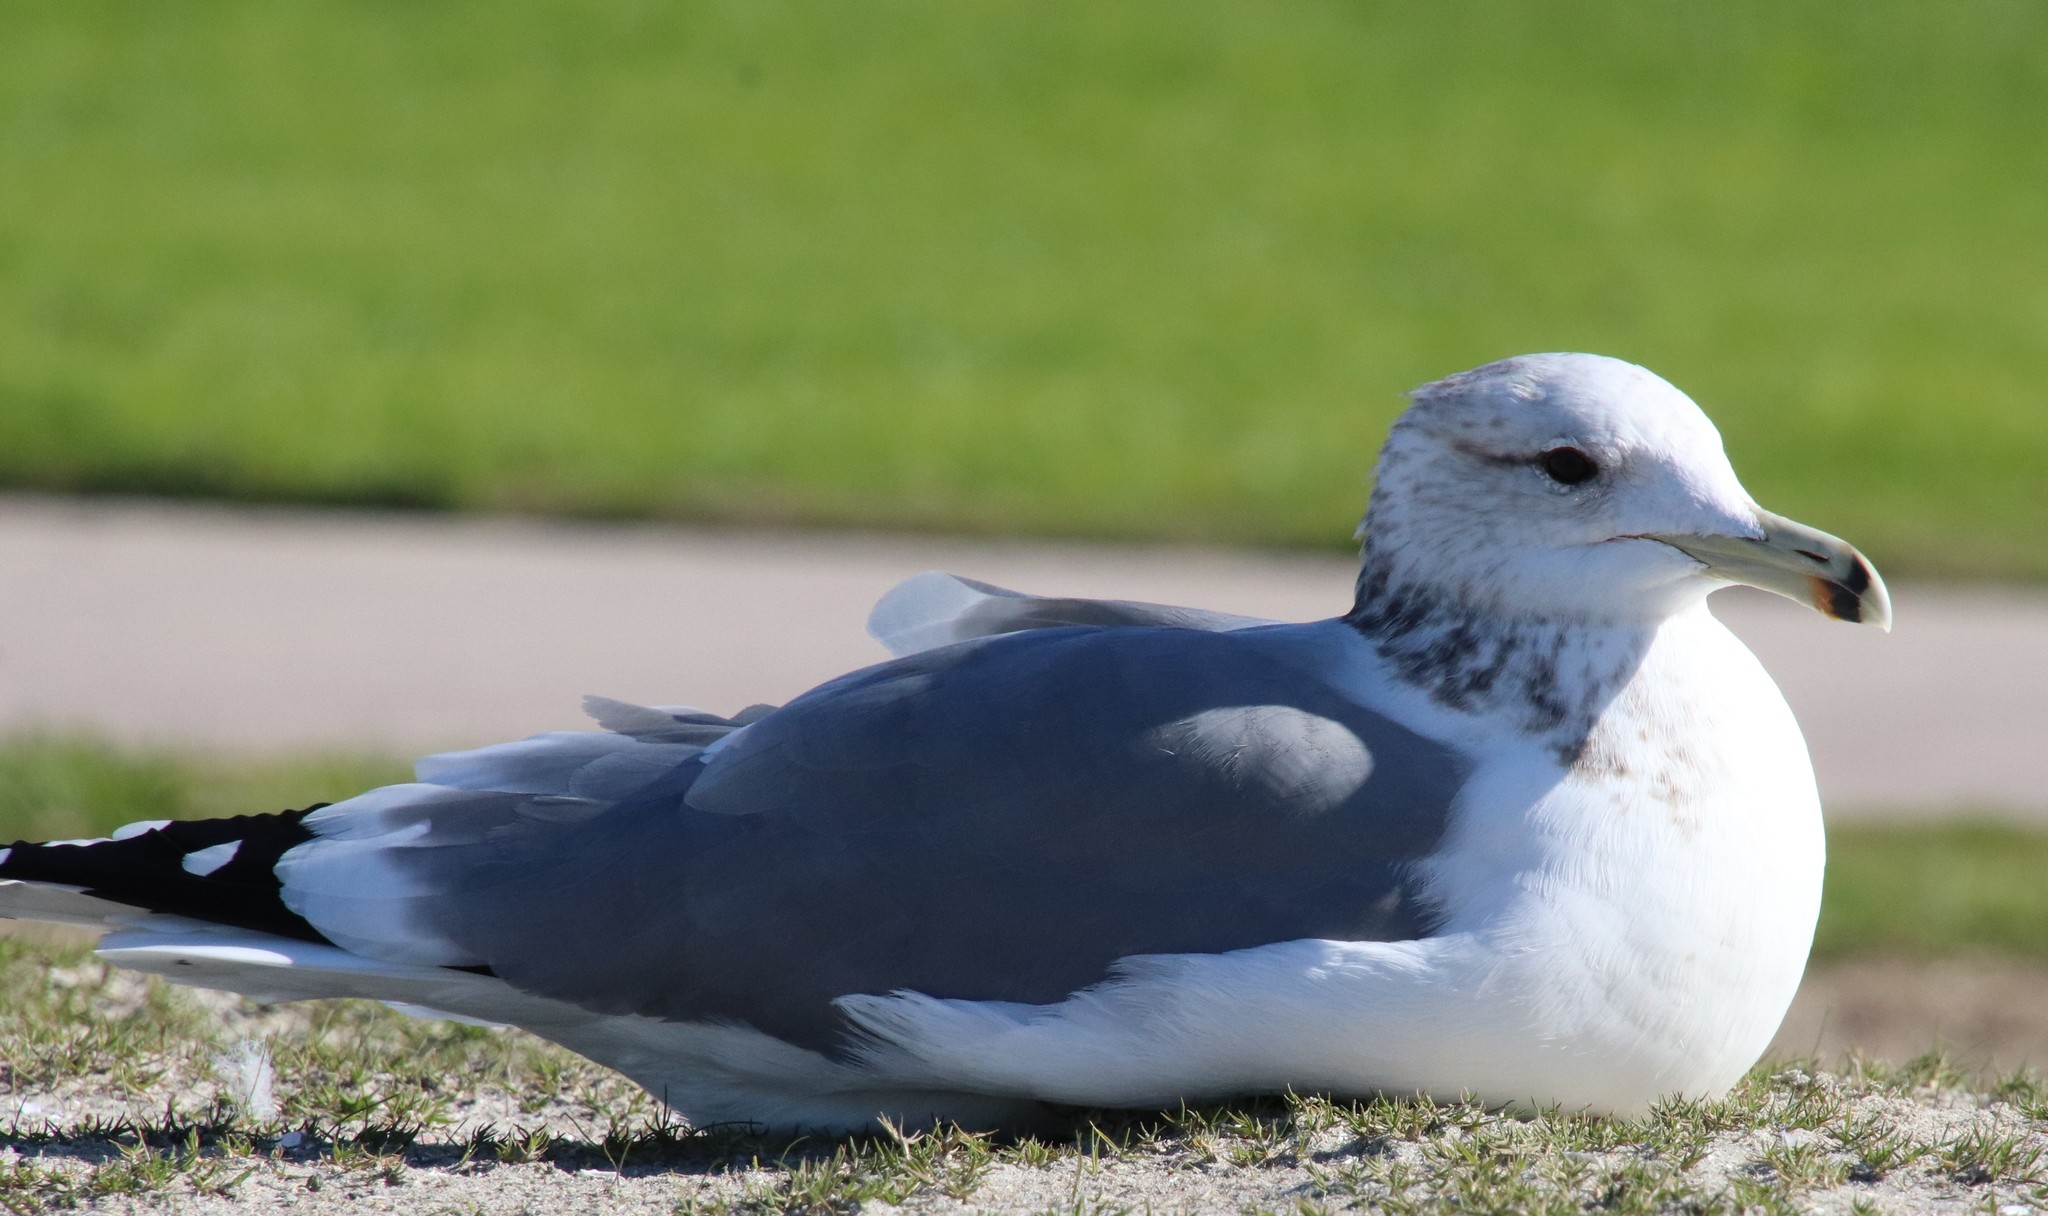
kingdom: Animalia
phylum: Chordata
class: Aves
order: Charadriiformes
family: Laridae
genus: Larus
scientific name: Larus californicus
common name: California gull
